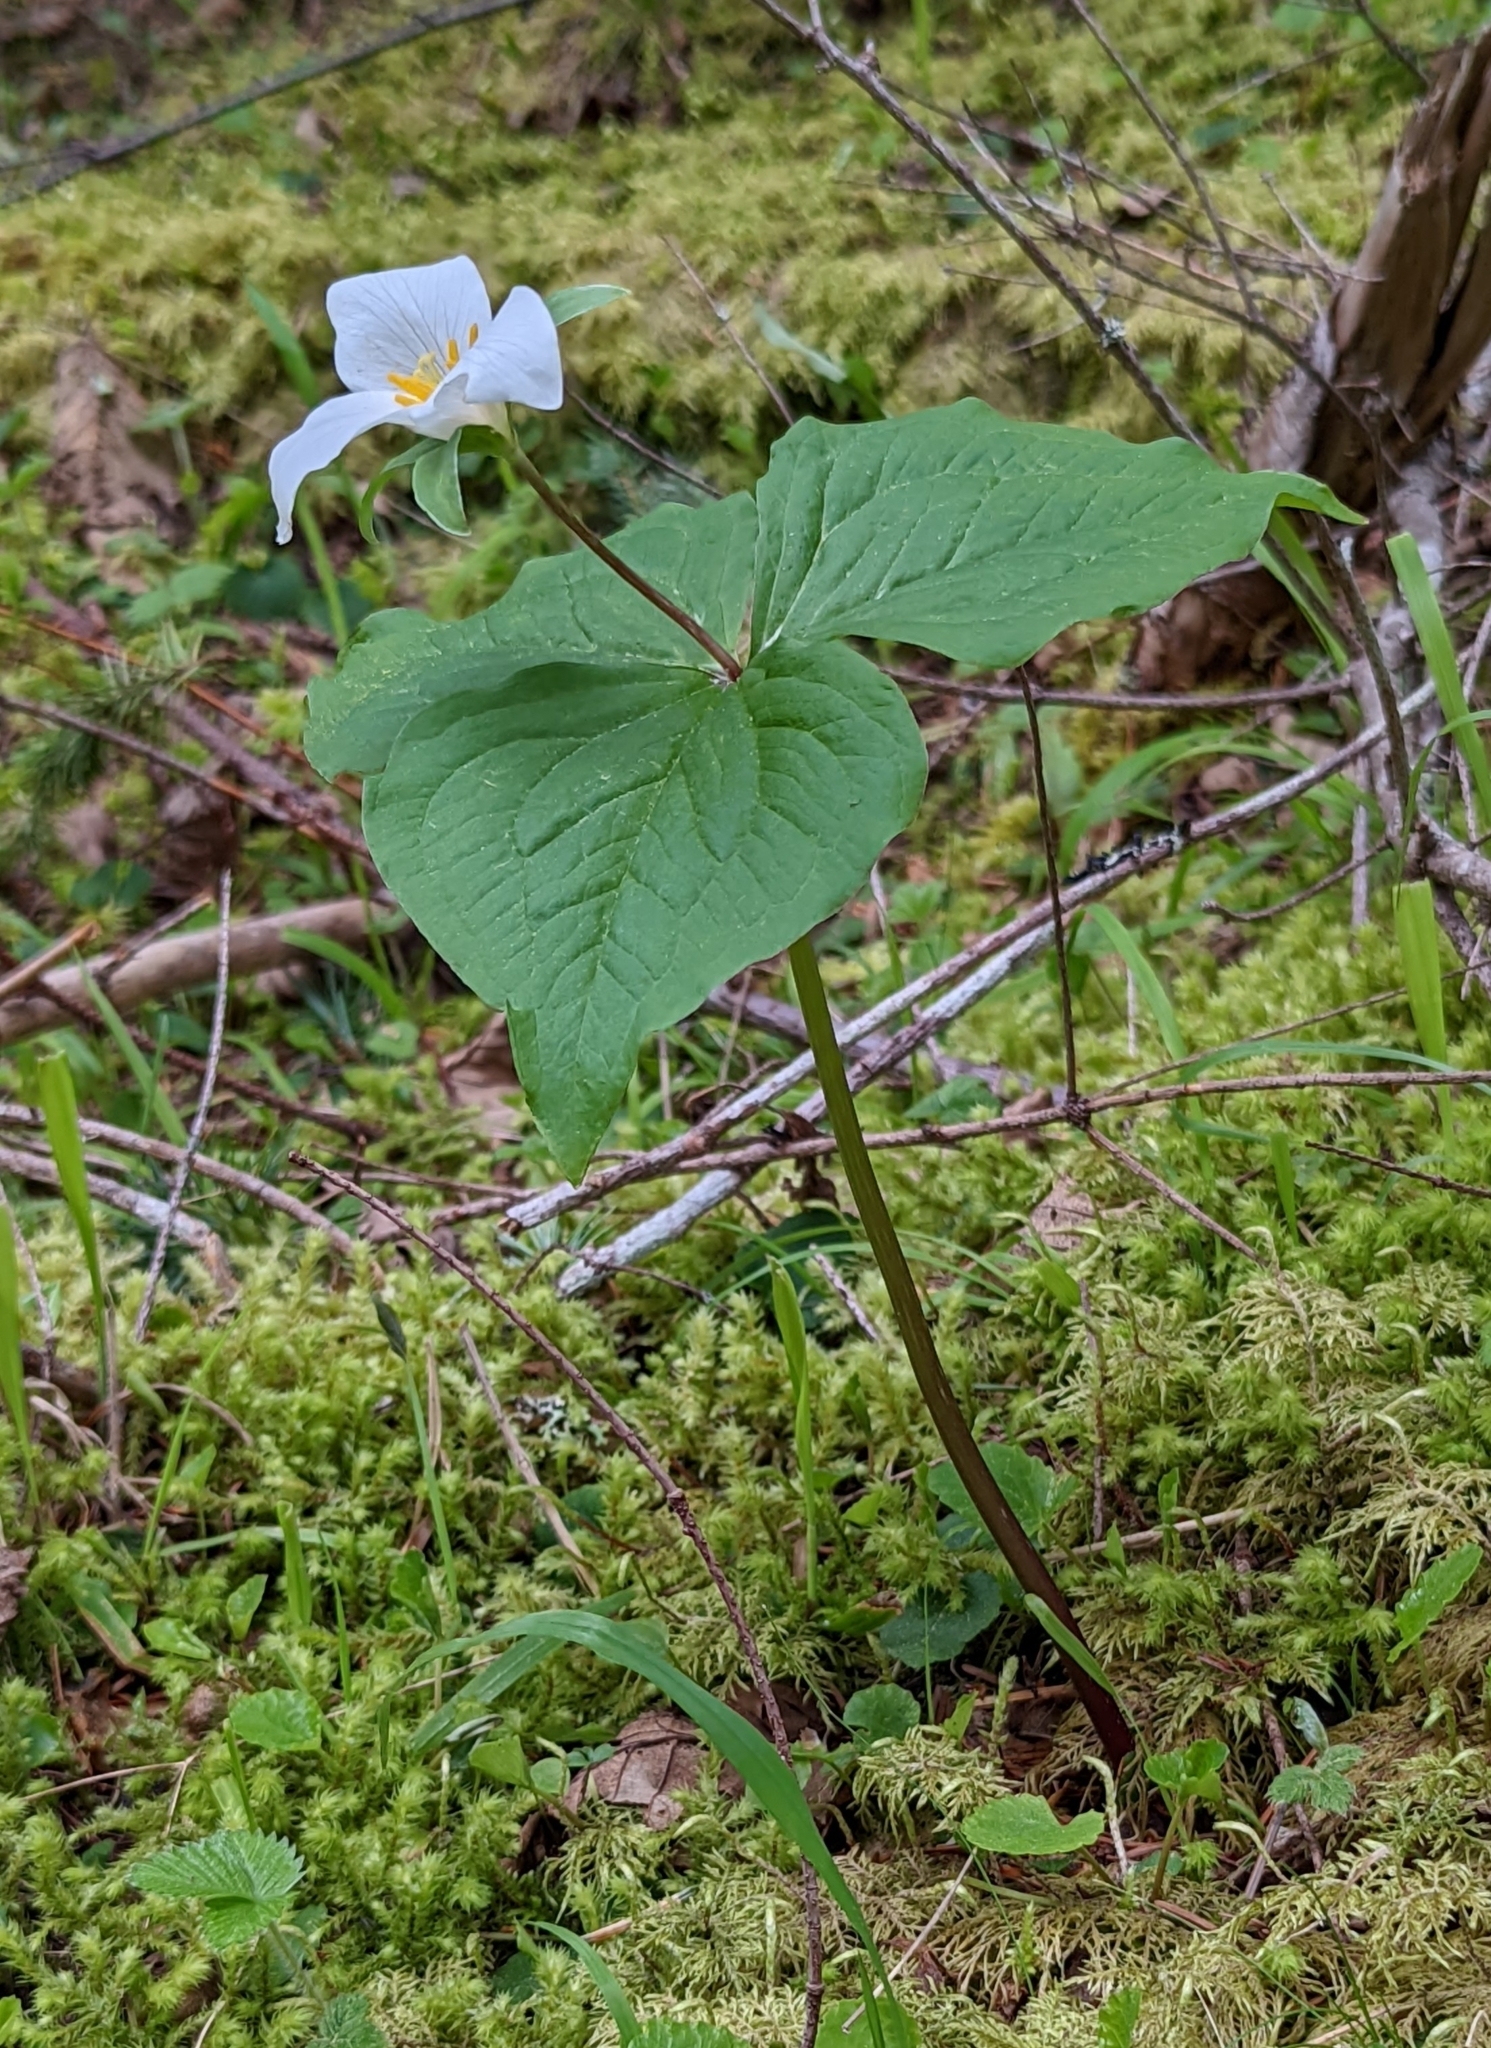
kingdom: Plantae
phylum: Tracheophyta
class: Liliopsida
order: Liliales
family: Melanthiaceae
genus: Trillium
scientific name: Trillium ovatum
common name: Pacific trillium
